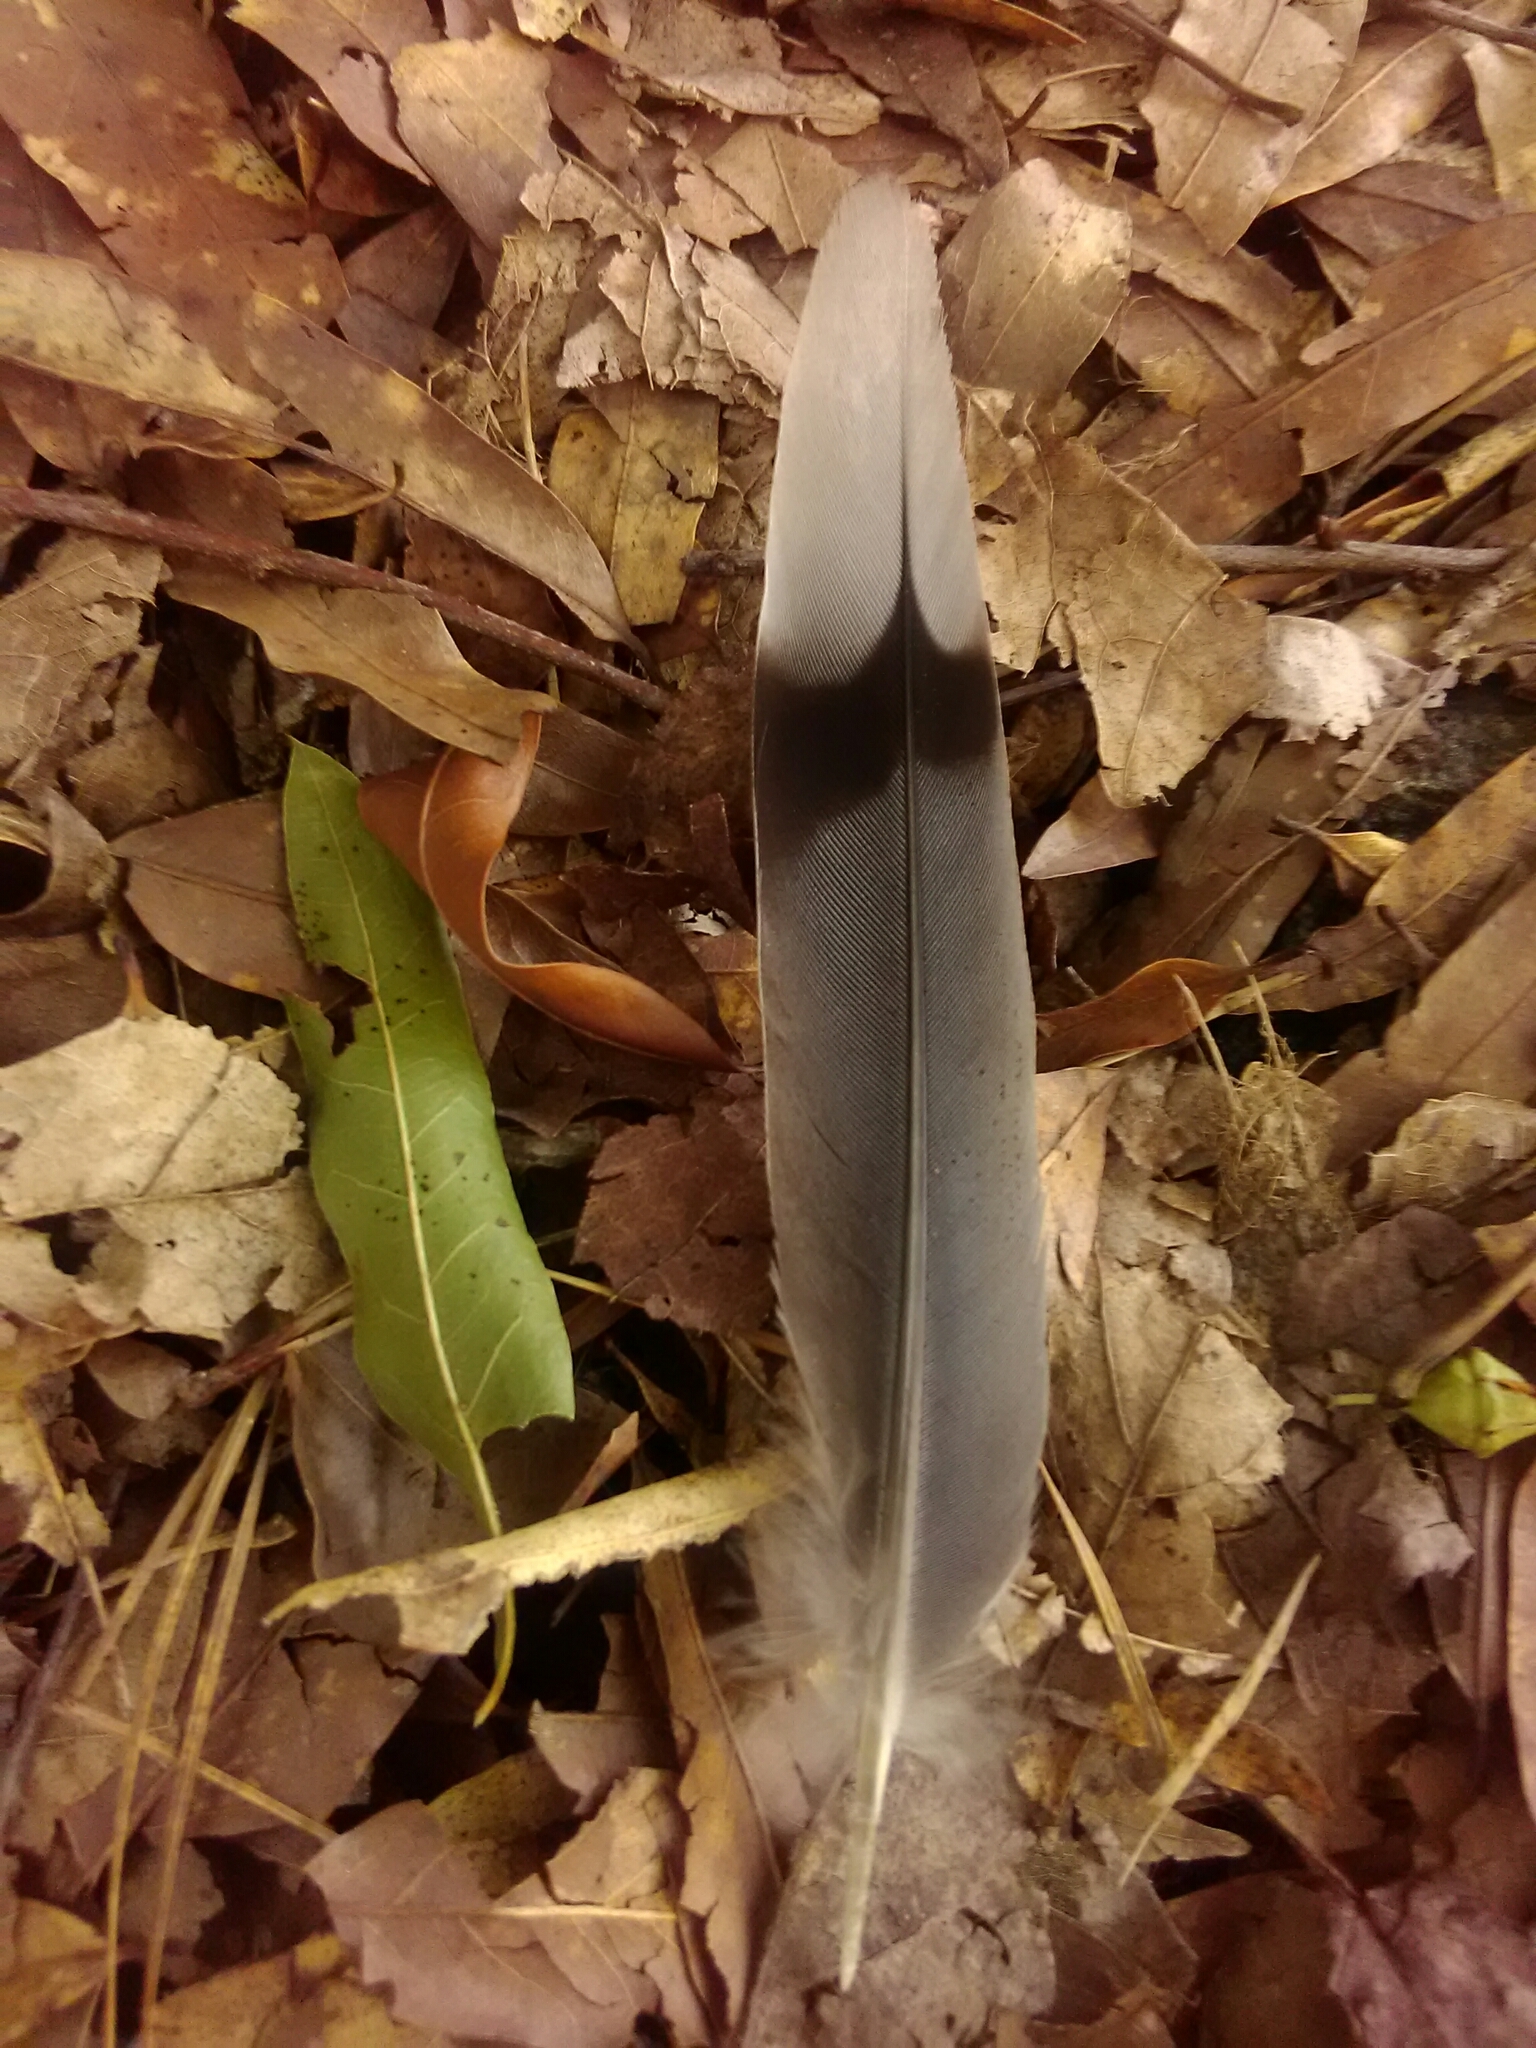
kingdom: Animalia
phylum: Chordata
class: Aves
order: Columbiformes
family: Columbidae
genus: Zenaida
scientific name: Zenaida macroura
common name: Mourning dove
